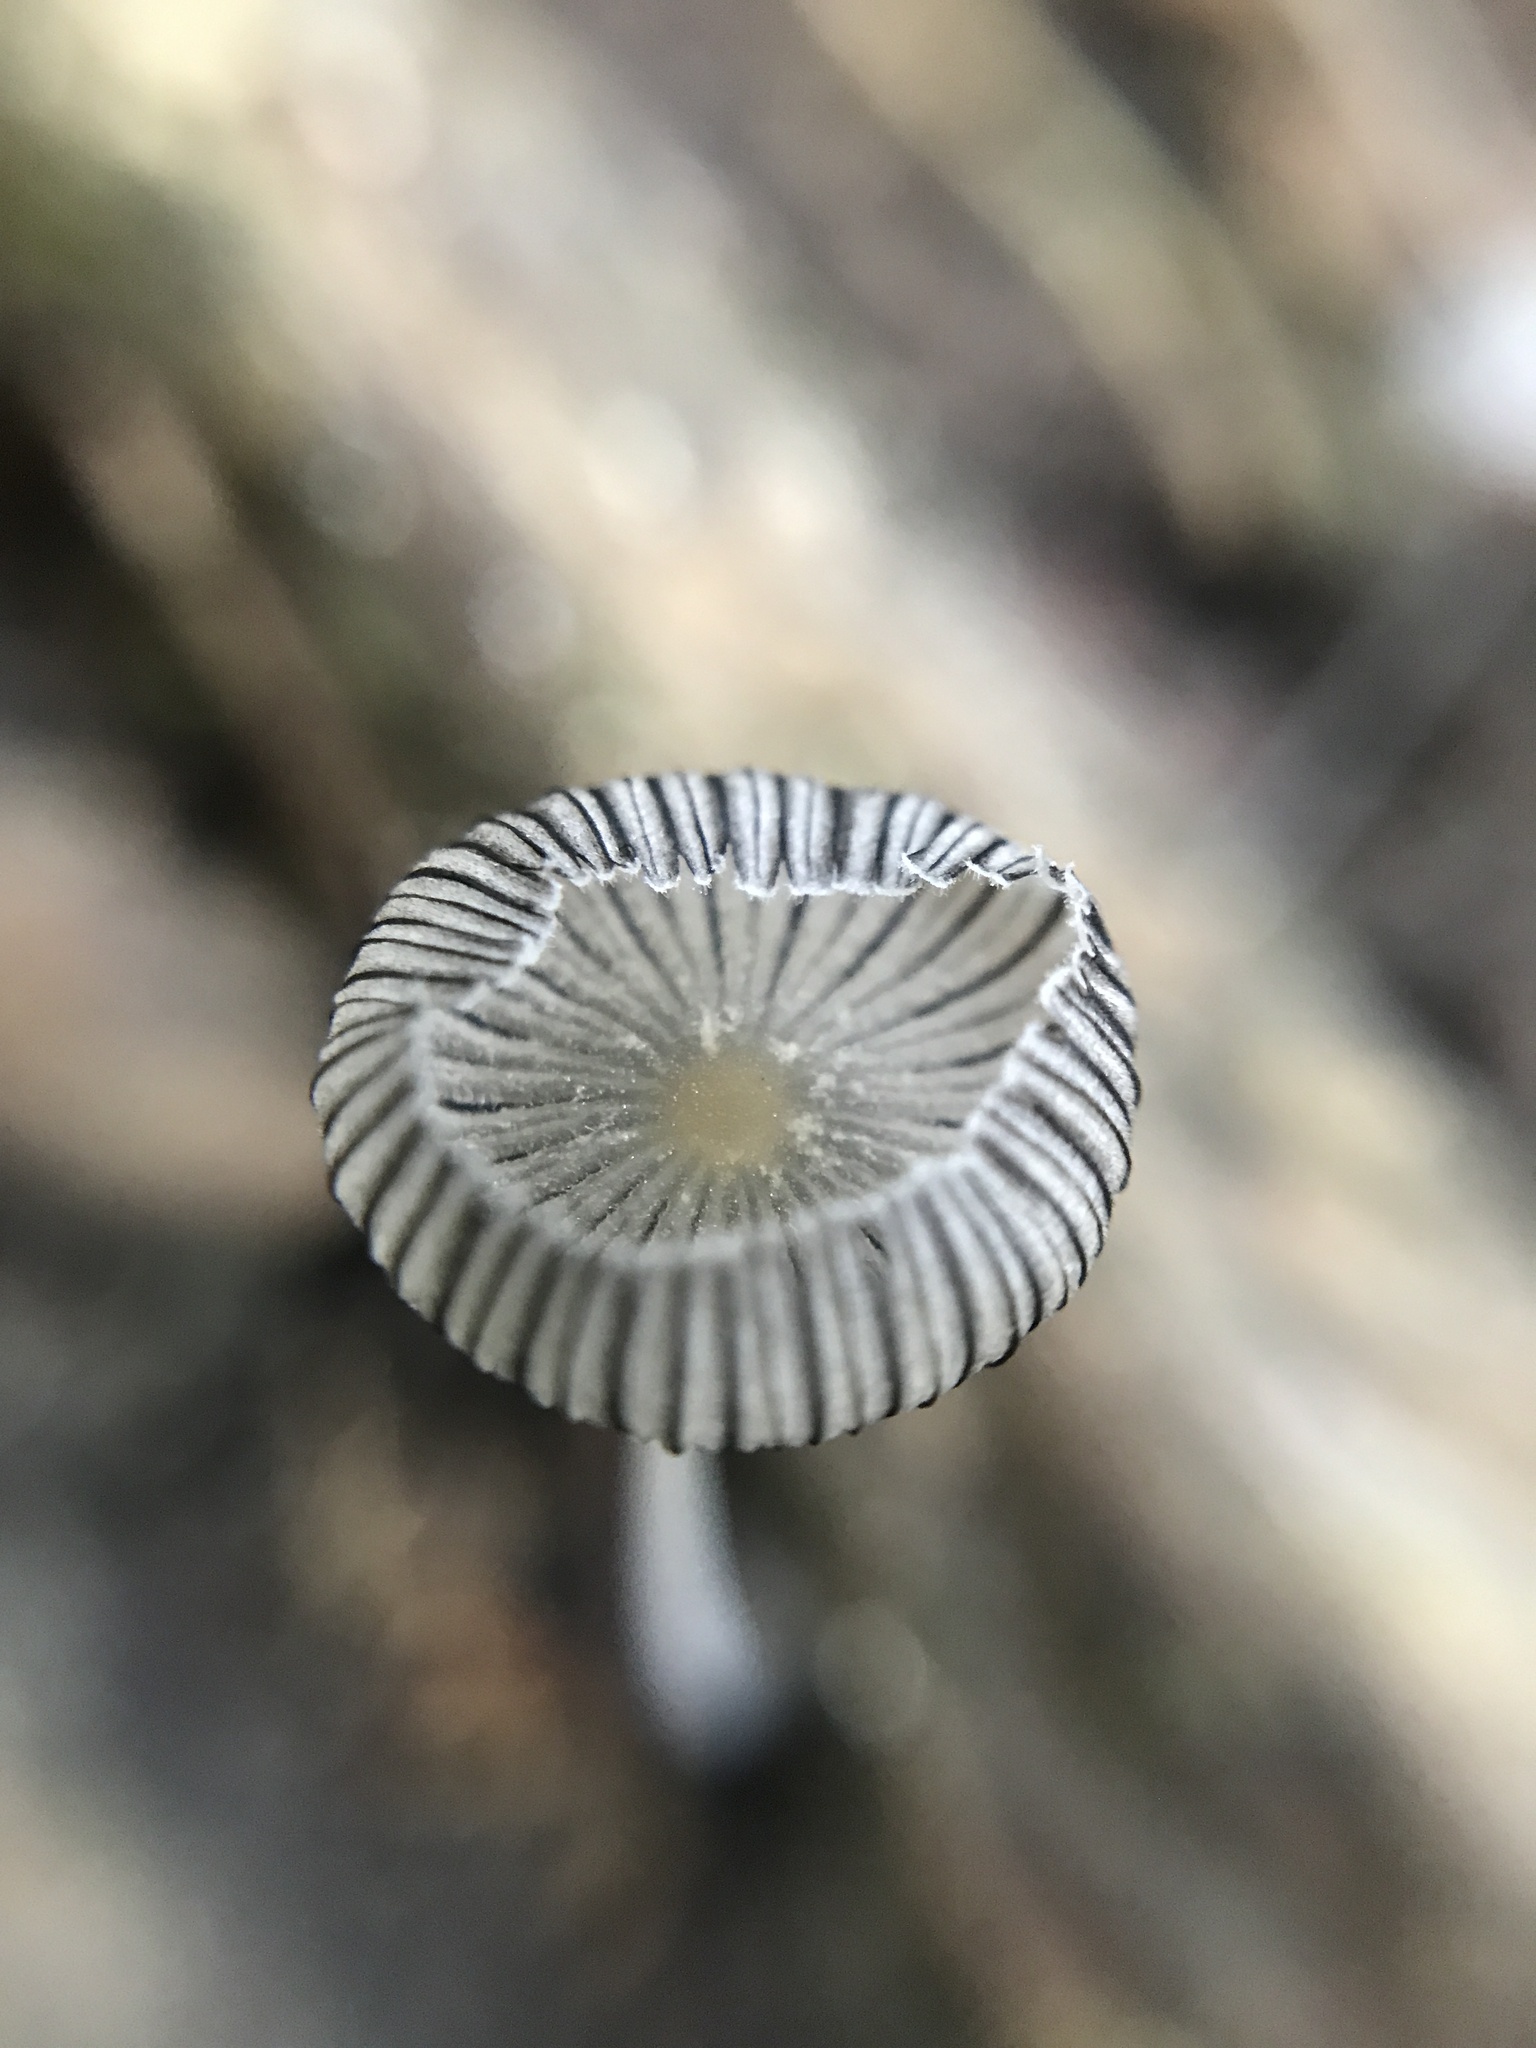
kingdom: Fungi
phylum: Basidiomycota
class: Agaricomycetes
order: Agaricales
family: Psathyrellaceae
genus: Coprinopsis
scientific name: Coprinopsis lagopus
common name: Hare'sfoot inkcap
